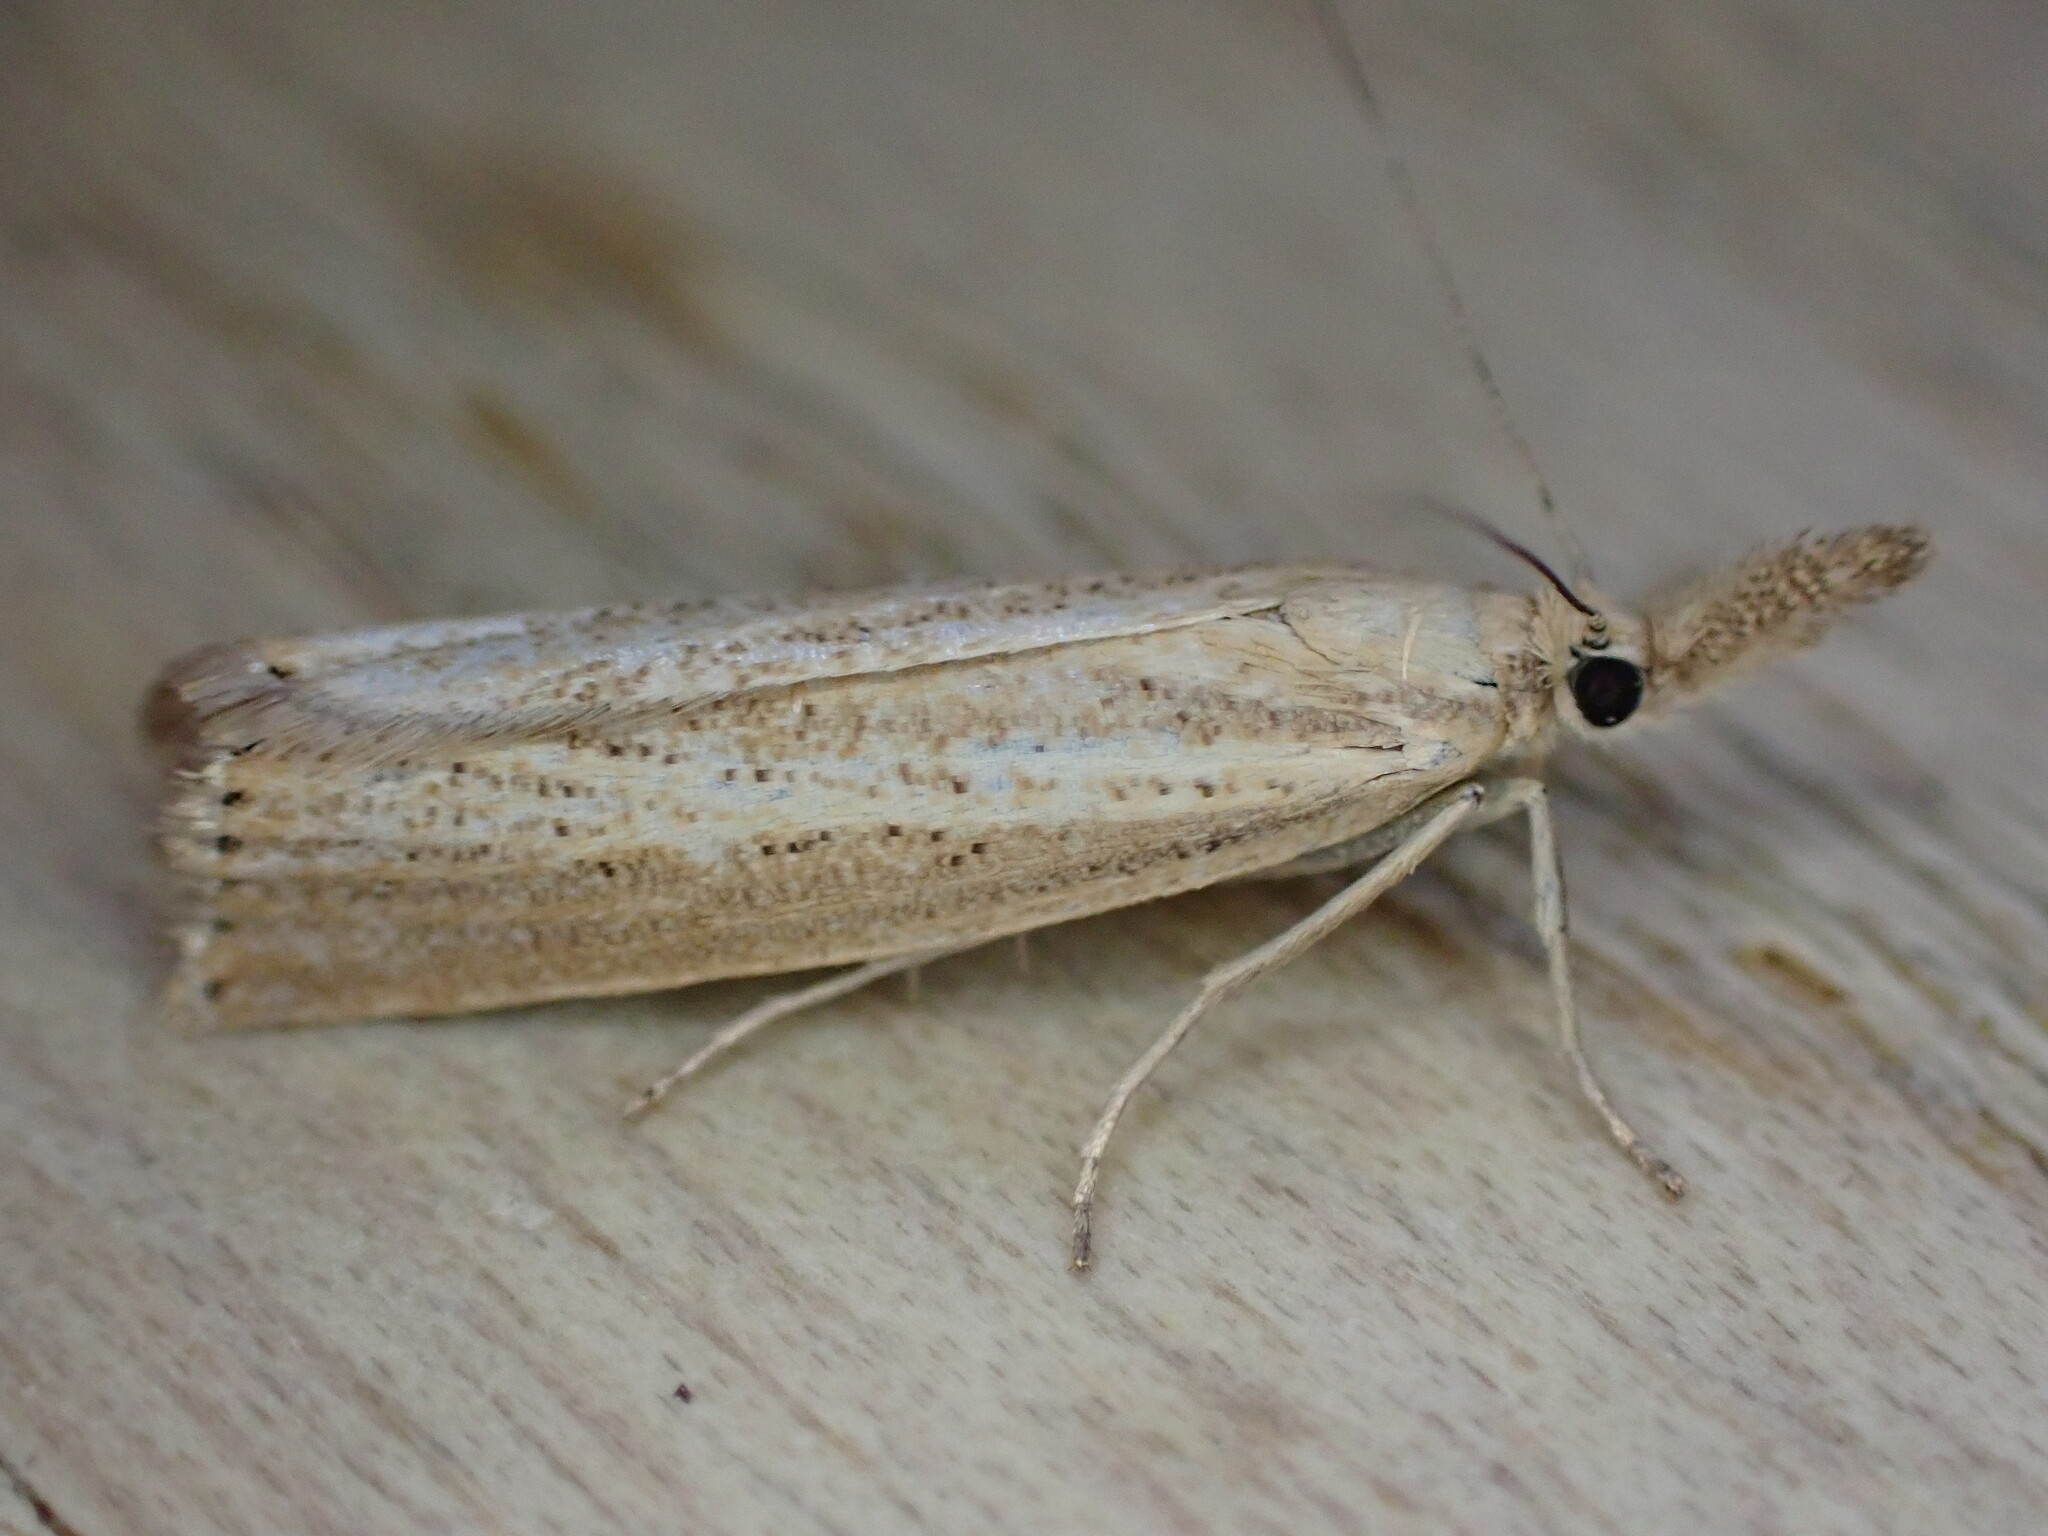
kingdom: Animalia
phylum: Arthropoda
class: Insecta
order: Lepidoptera
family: Crambidae
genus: Agriphila
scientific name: Agriphila straminella
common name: Straw grass-veneer
